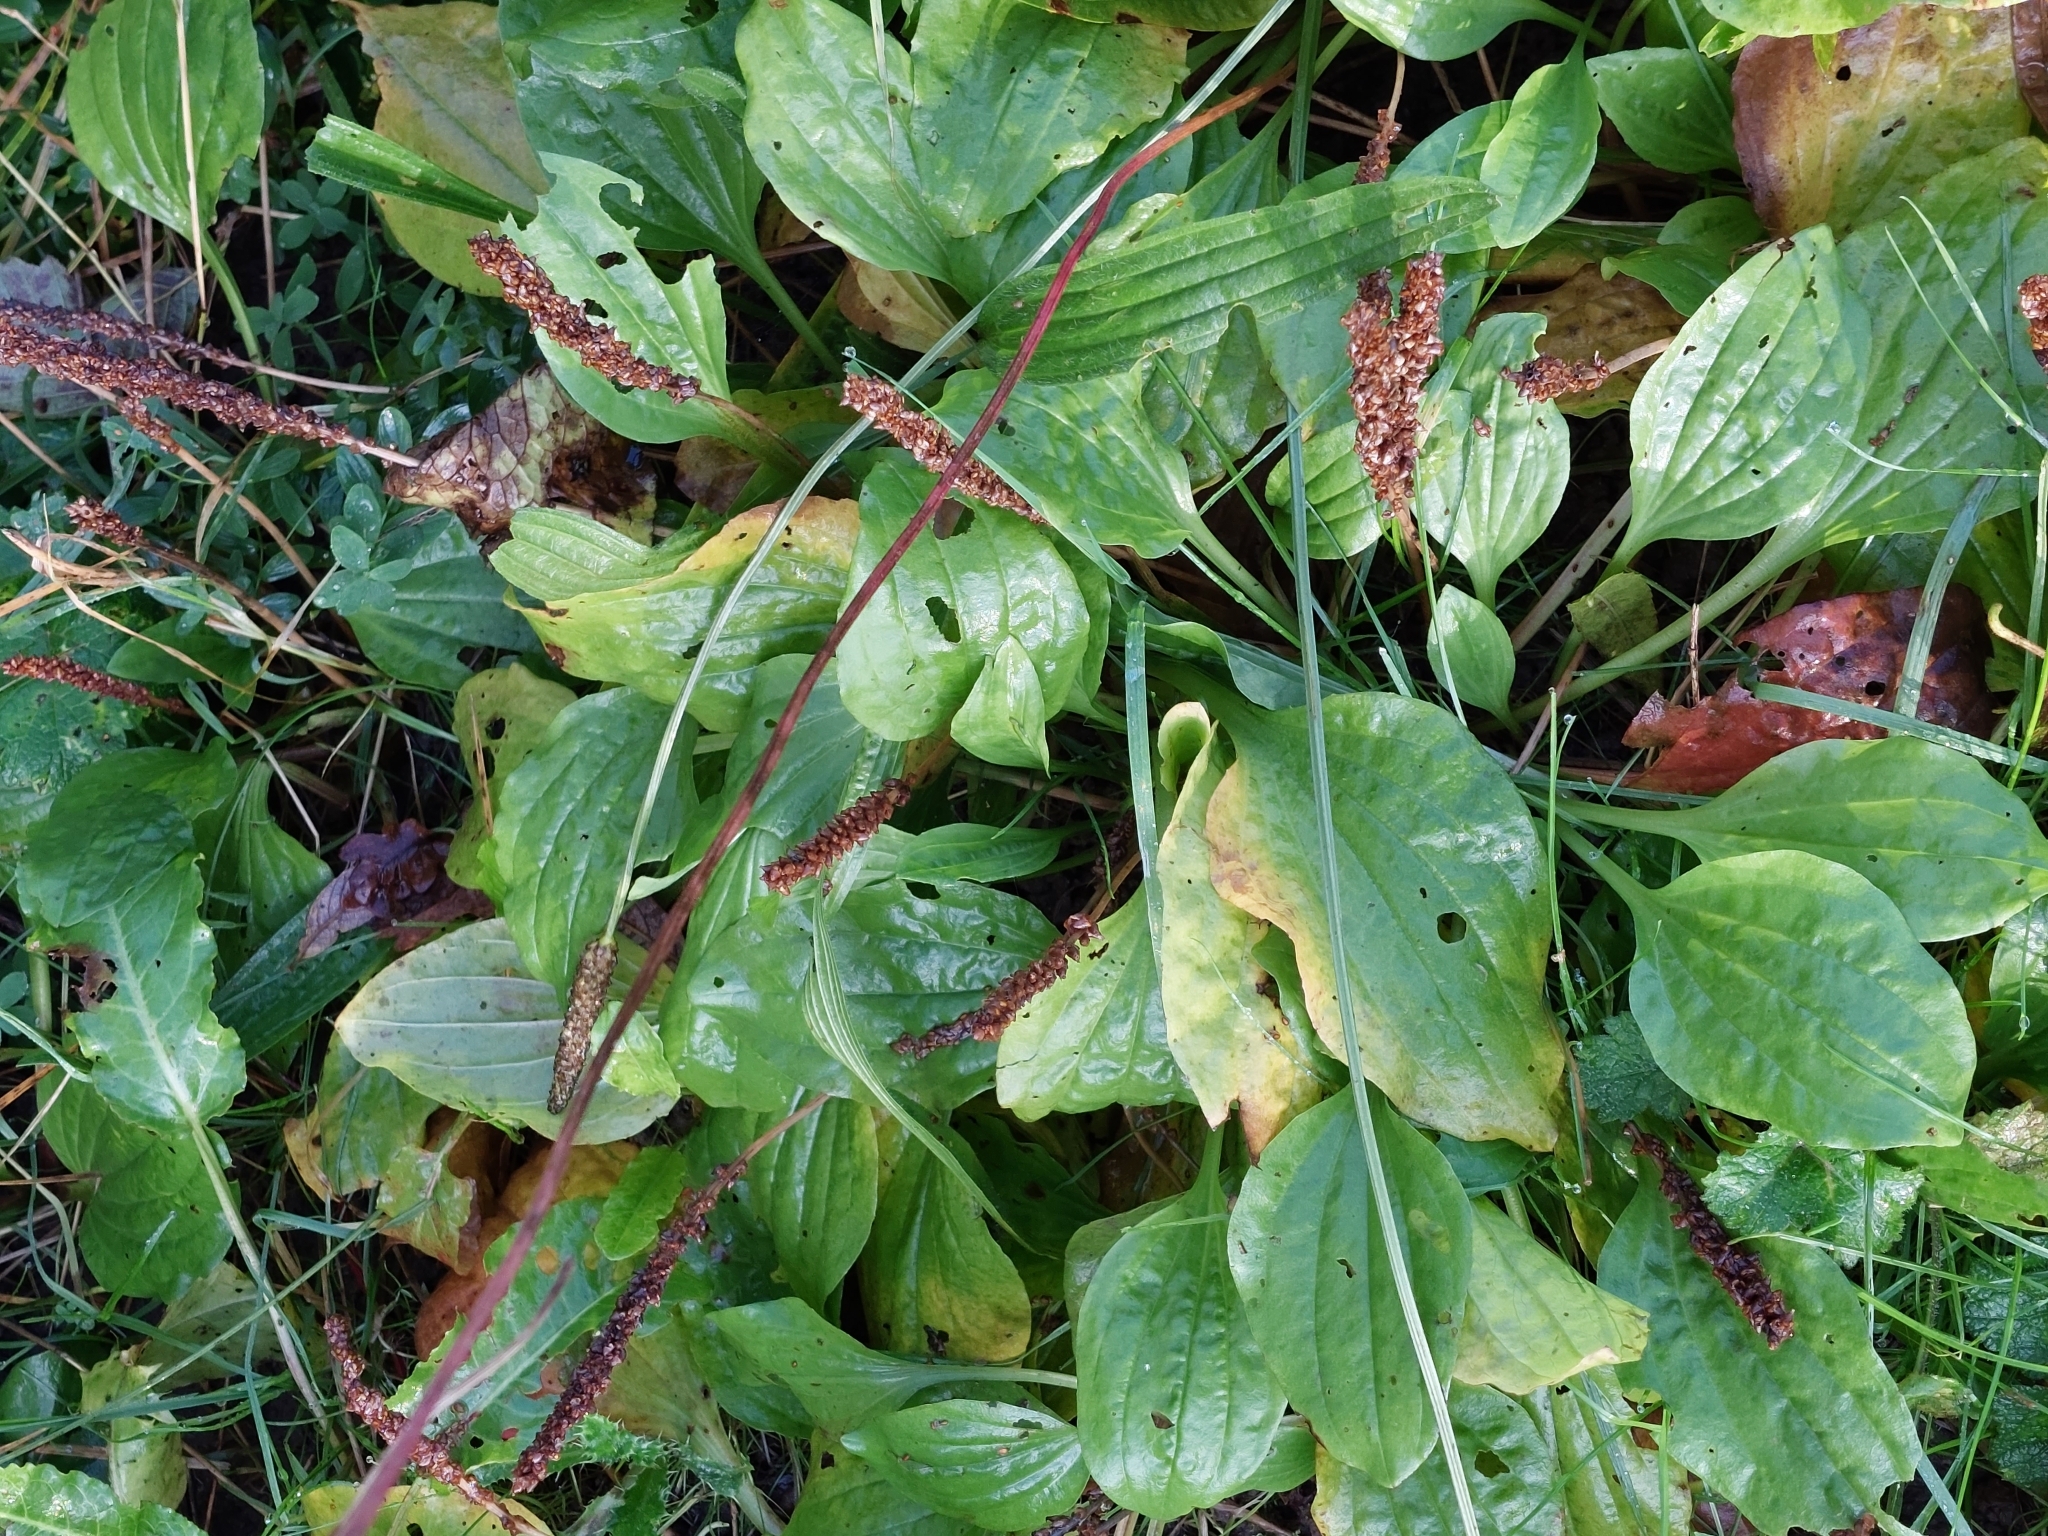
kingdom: Plantae
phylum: Tracheophyta
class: Magnoliopsida
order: Lamiales
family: Plantaginaceae
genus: Plantago
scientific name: Plantago major
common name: Common plantain
